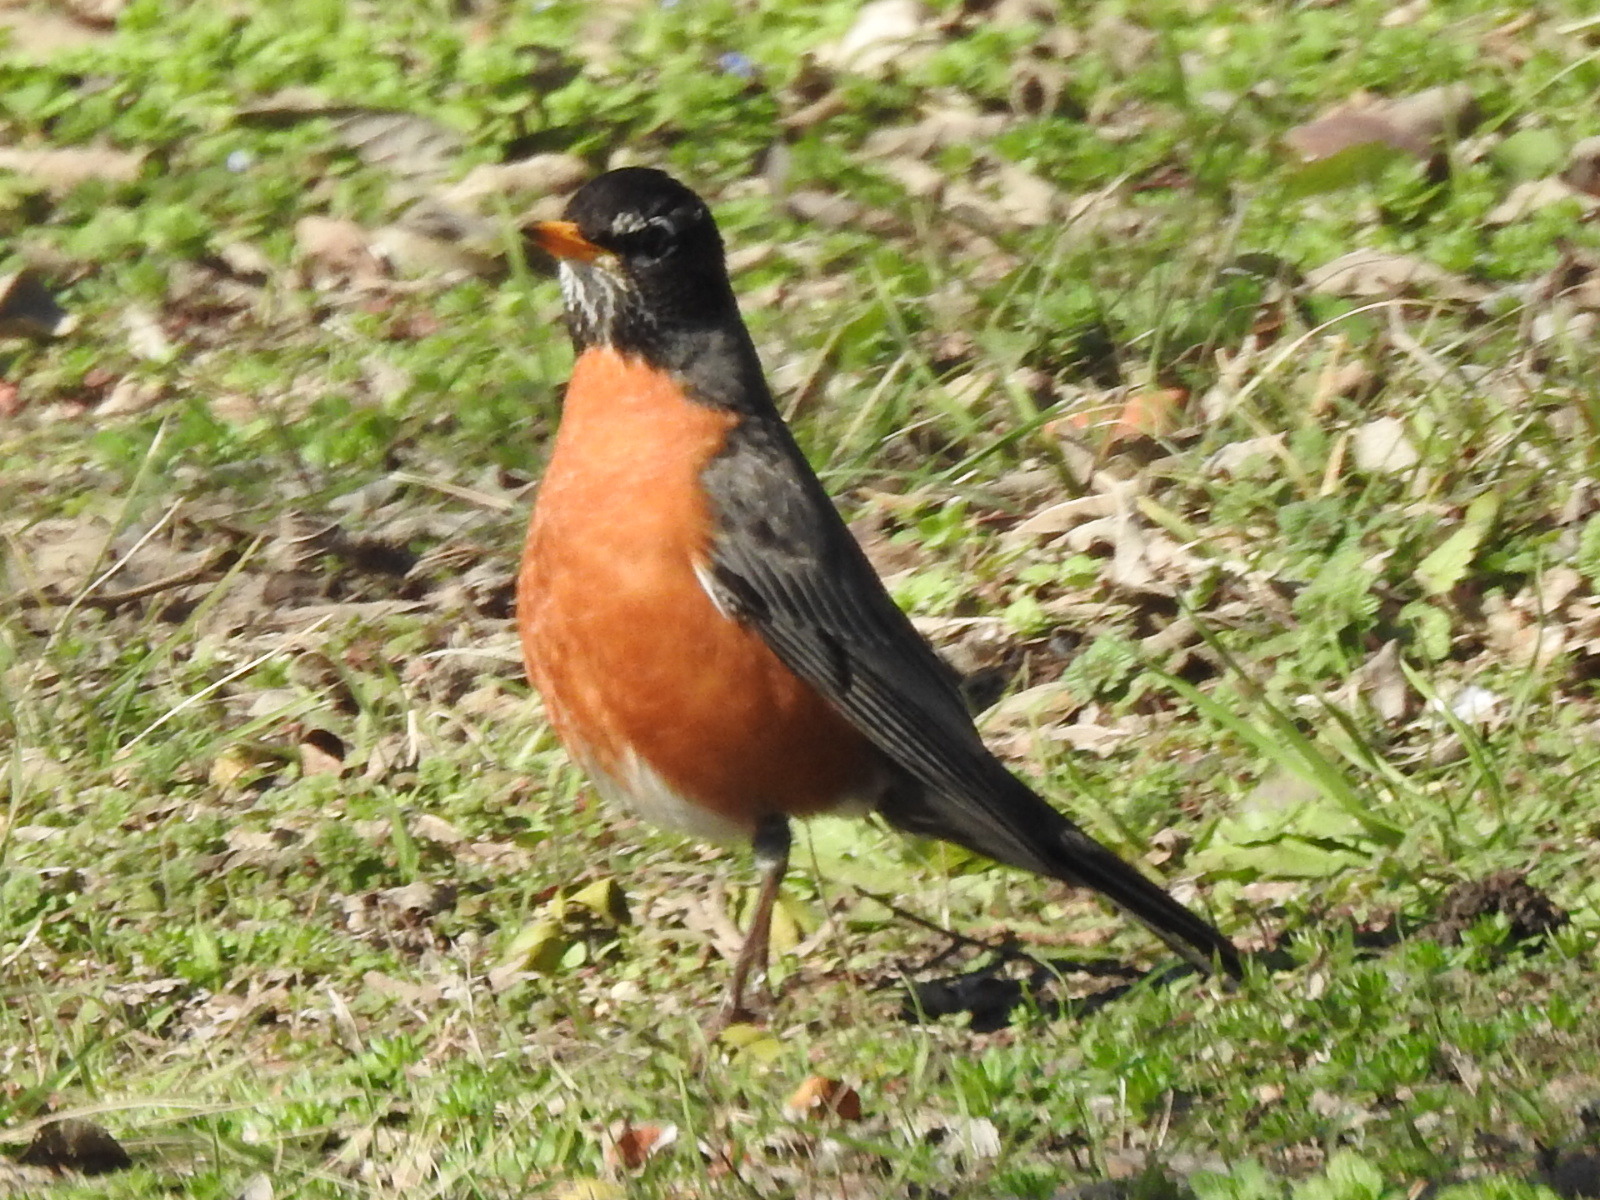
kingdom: Animalia
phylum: Chordata
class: Aves
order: Passeriformes
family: Turdidae
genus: Turdus
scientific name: Turdus migratorius
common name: American robin
